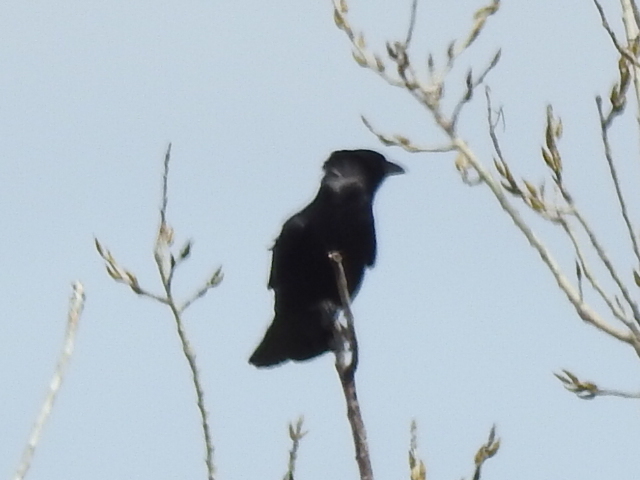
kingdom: Animalia
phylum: Chordata
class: Aves
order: Passeriformes
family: Corvidae
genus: Corvus
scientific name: Corvus brachyrhynchos
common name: American crow
